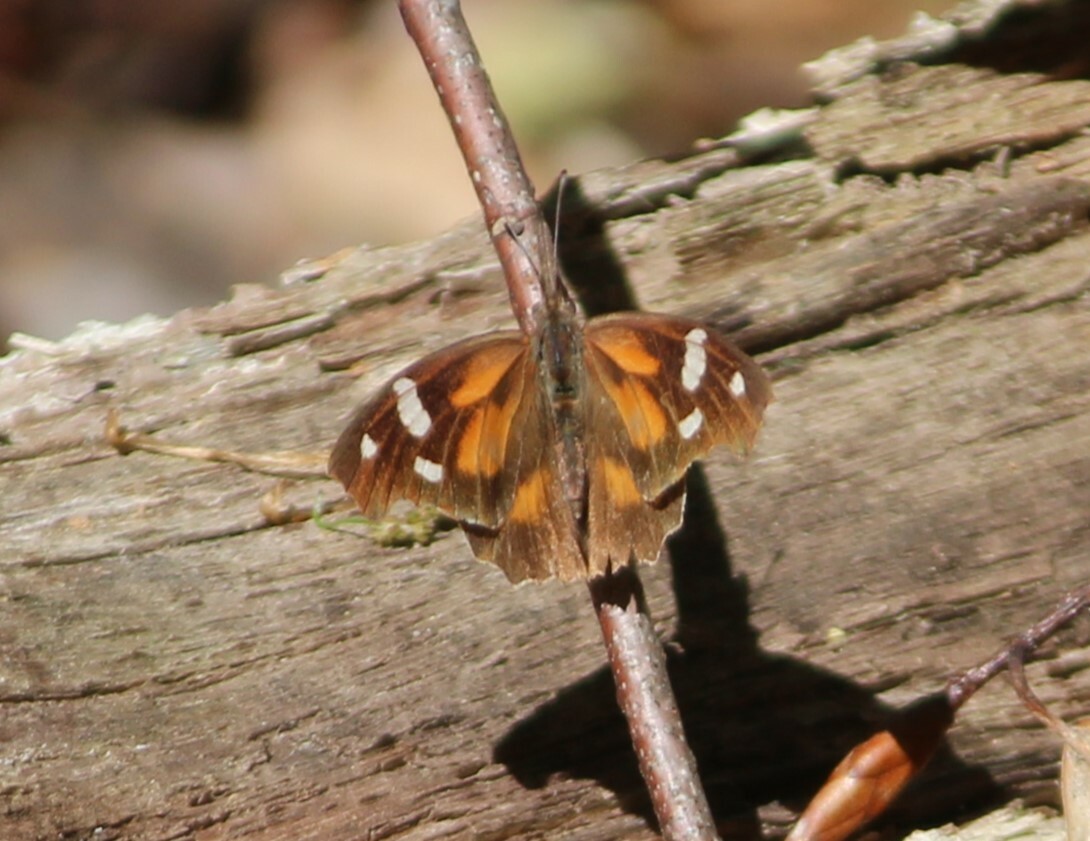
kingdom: Animalia
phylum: Arthropoda
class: Insecta
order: Lepidoptera
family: Nymphalidae
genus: Libytheana
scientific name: Libytheana carinenta
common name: American snout
